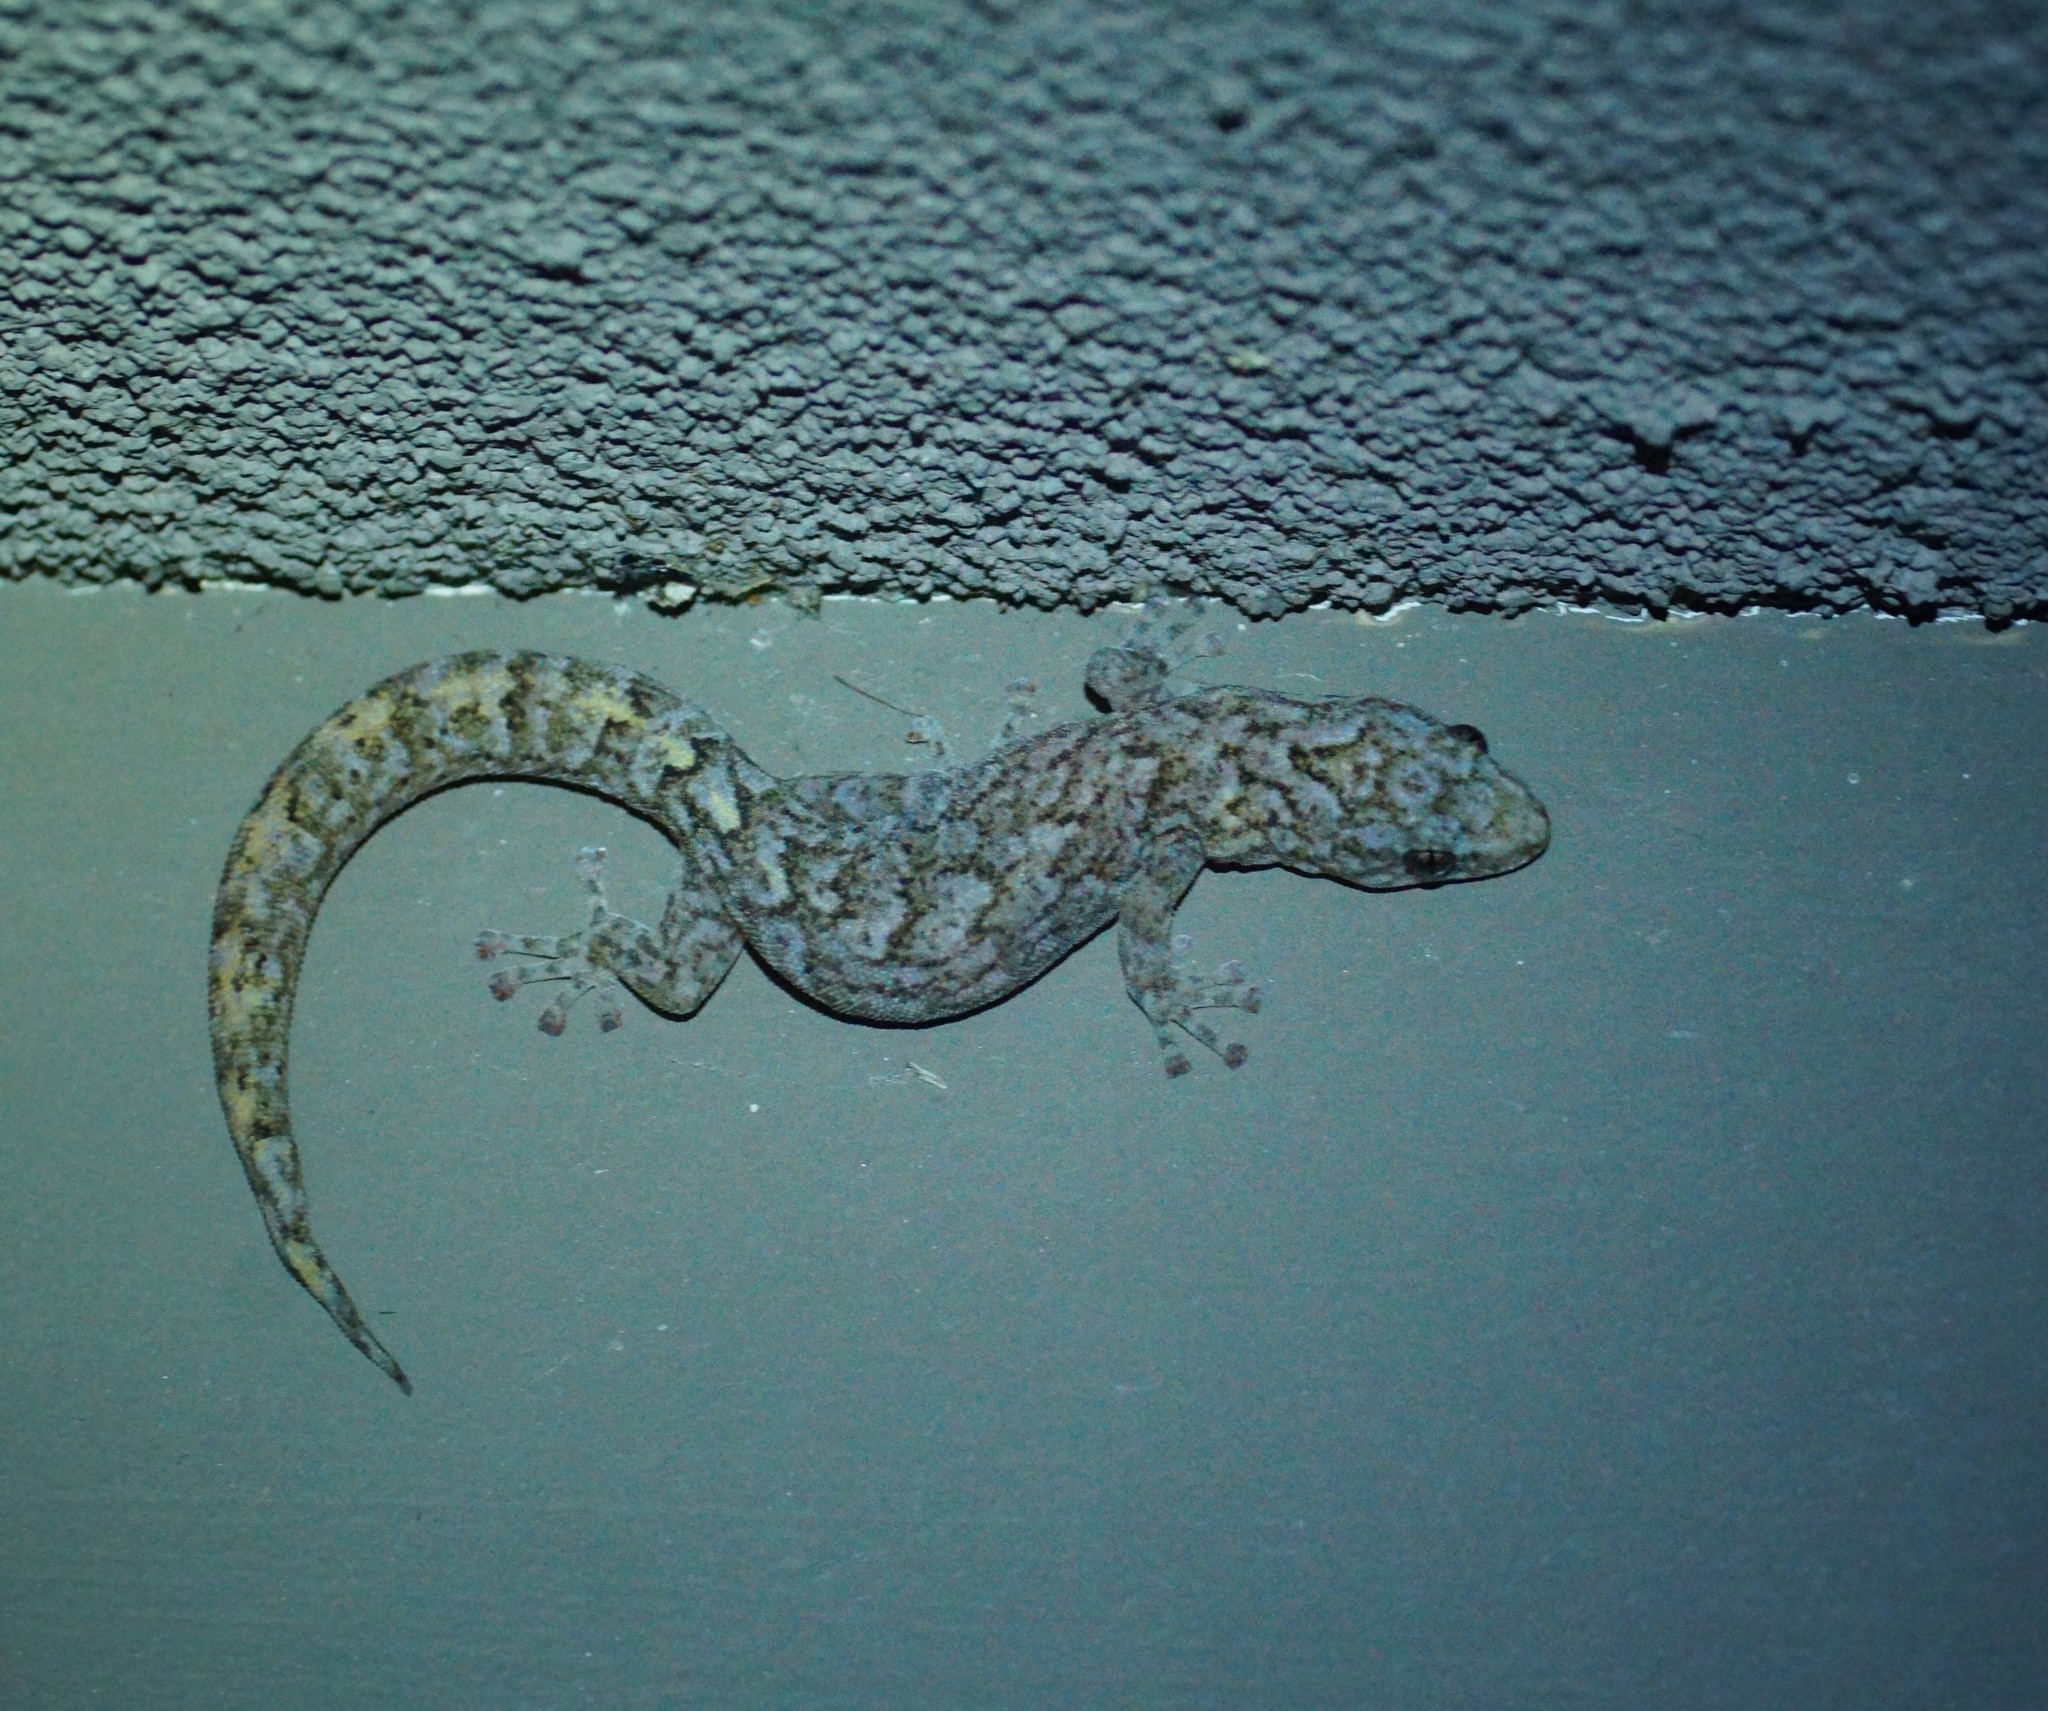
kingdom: Animalia
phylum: Chordata
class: Squamata
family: Gekkonidae
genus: Christinus
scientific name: Christinus marmoratus
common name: Marbled gecko
